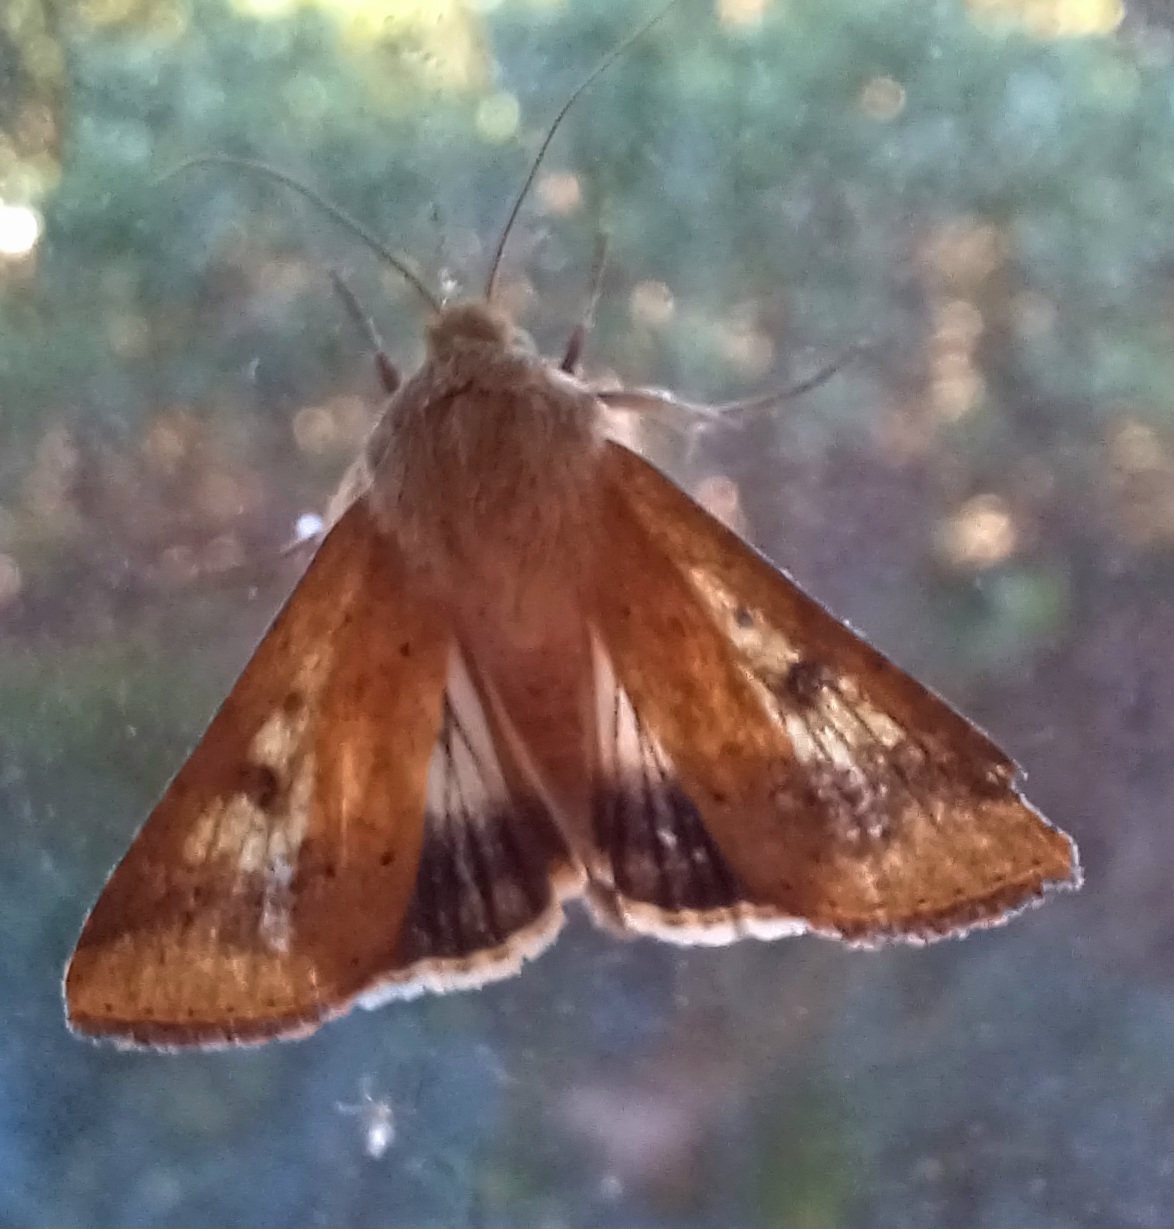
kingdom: Animalia
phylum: Arthropoda
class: Insecta
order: Lepidoptera
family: Noctuidae
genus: Helicoverpa
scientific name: Helicoverpa armigera
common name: Cotton bollworm
